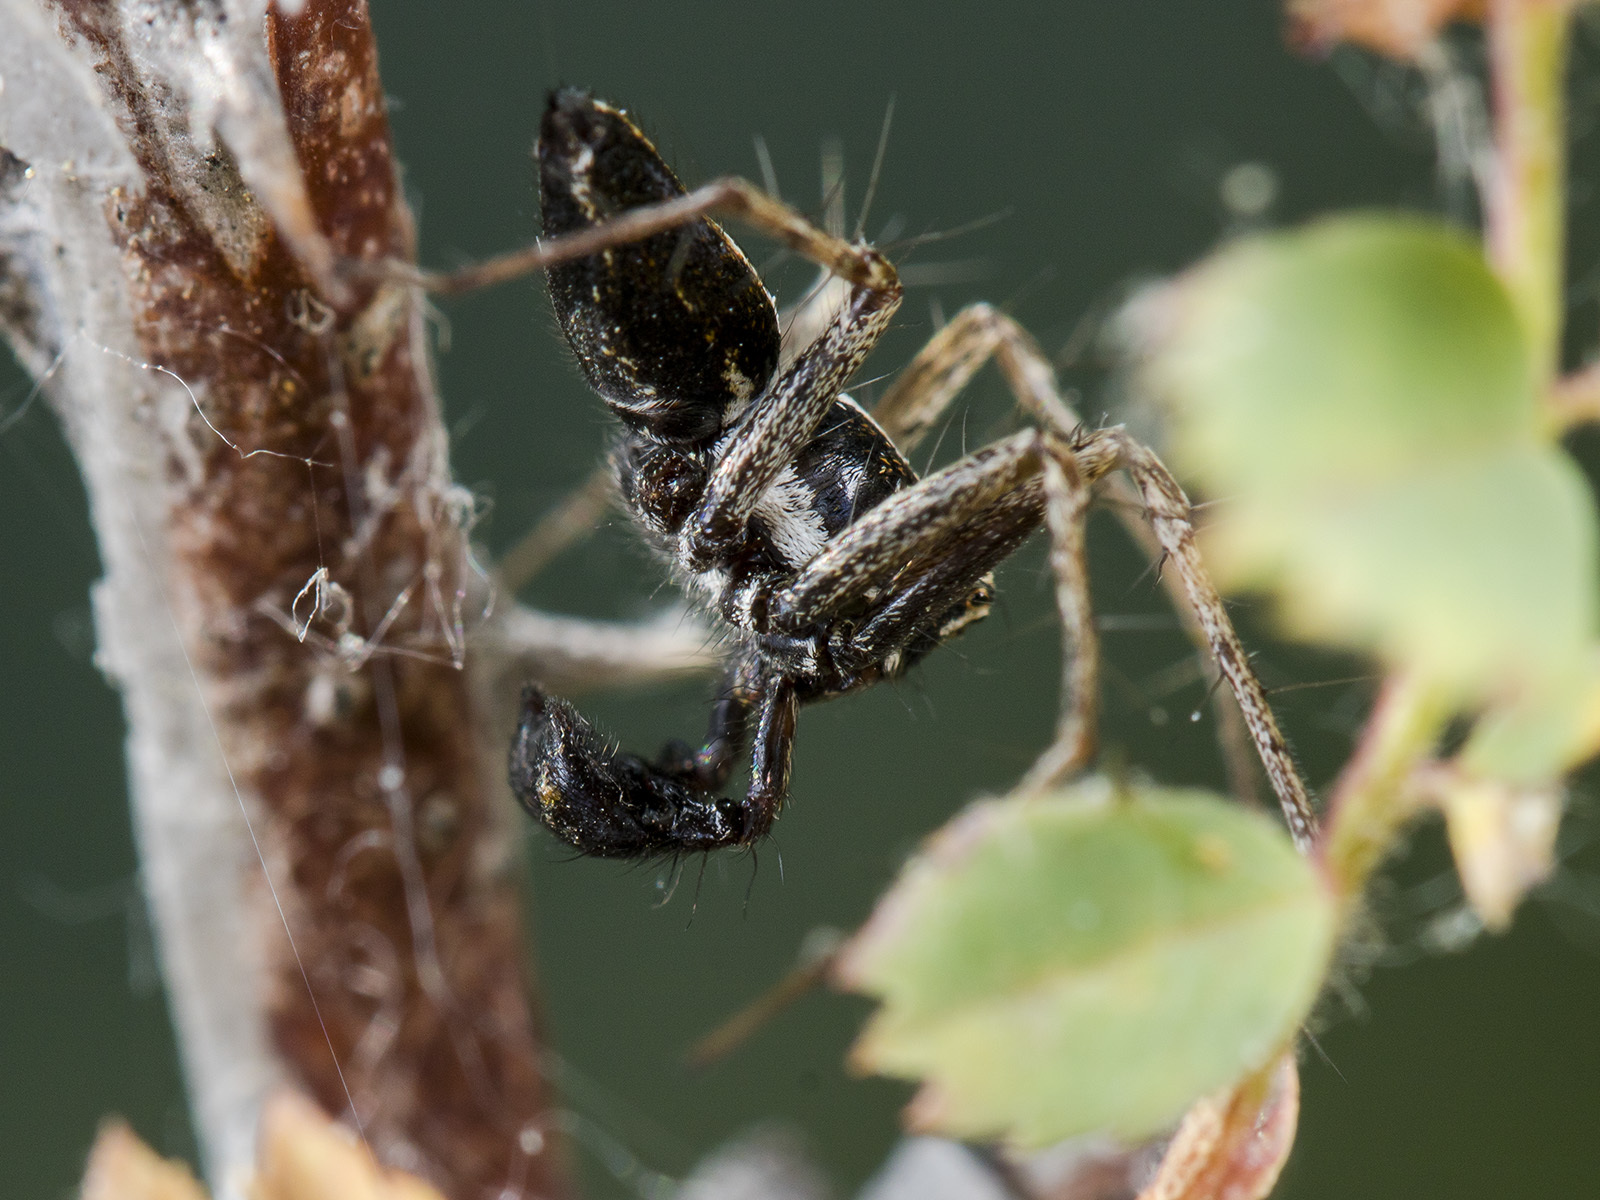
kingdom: Animalia
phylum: Arthropoda
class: Arachnida
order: Araneae
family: Oxyopidae
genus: Oxyopes
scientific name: Oxyopes takobius
